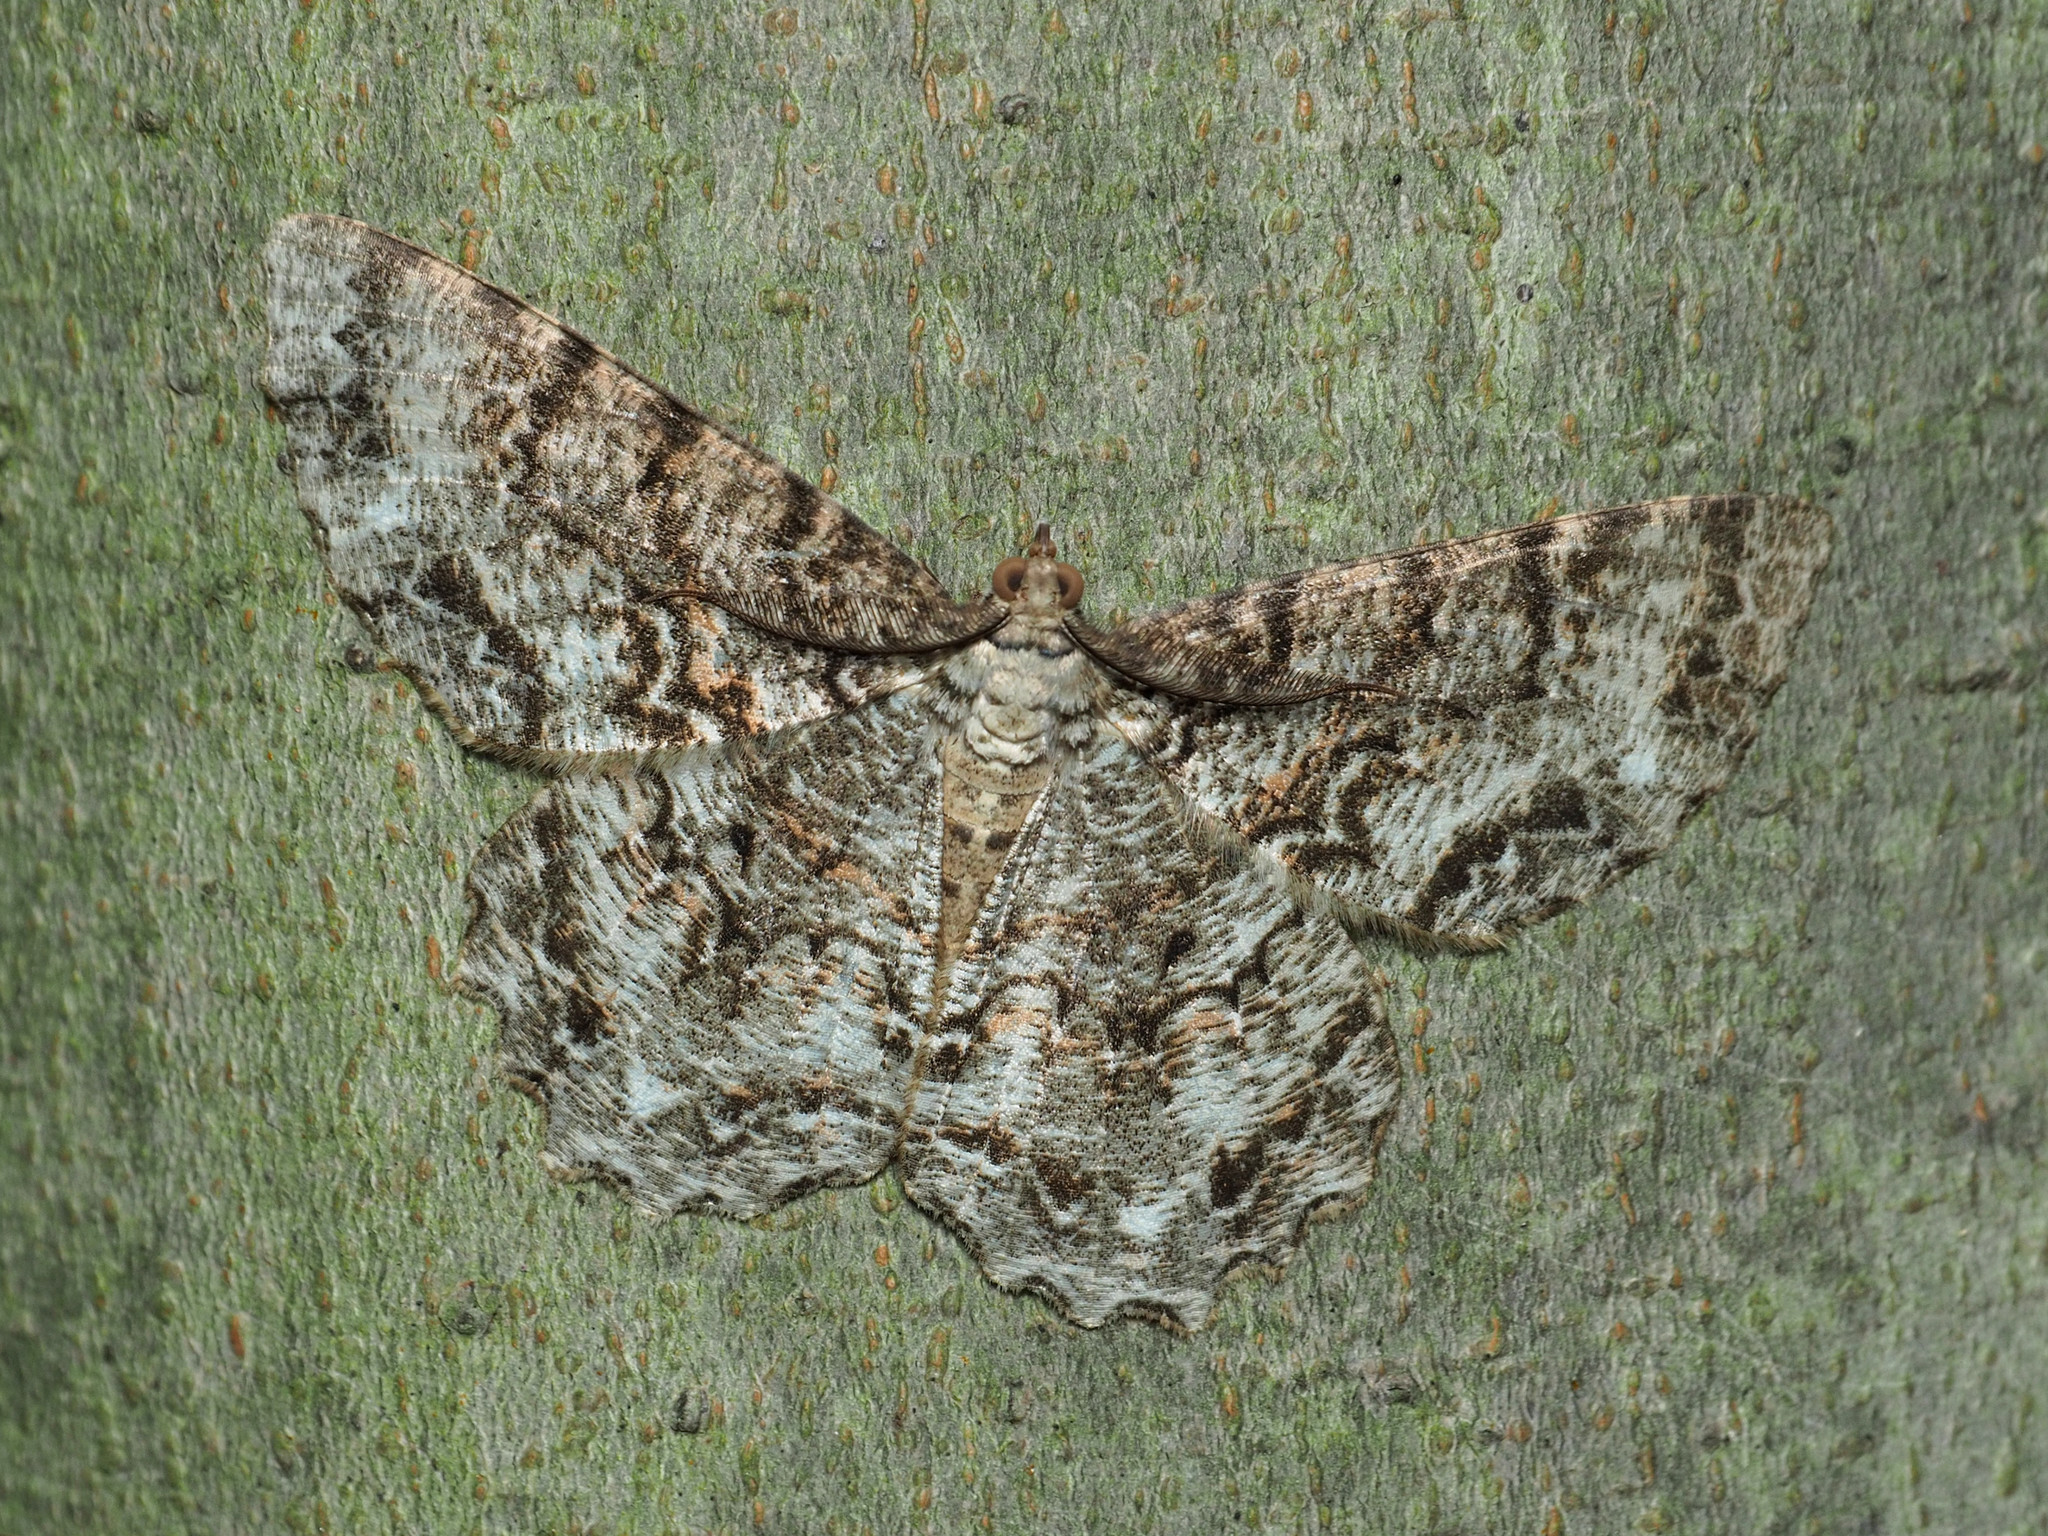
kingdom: Animalia
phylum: Arthropoda
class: Insecta
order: Lepidoptera
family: Geometridae
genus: Epimecis
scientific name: Epimecis hortaria
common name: Tulip-tree beauty
